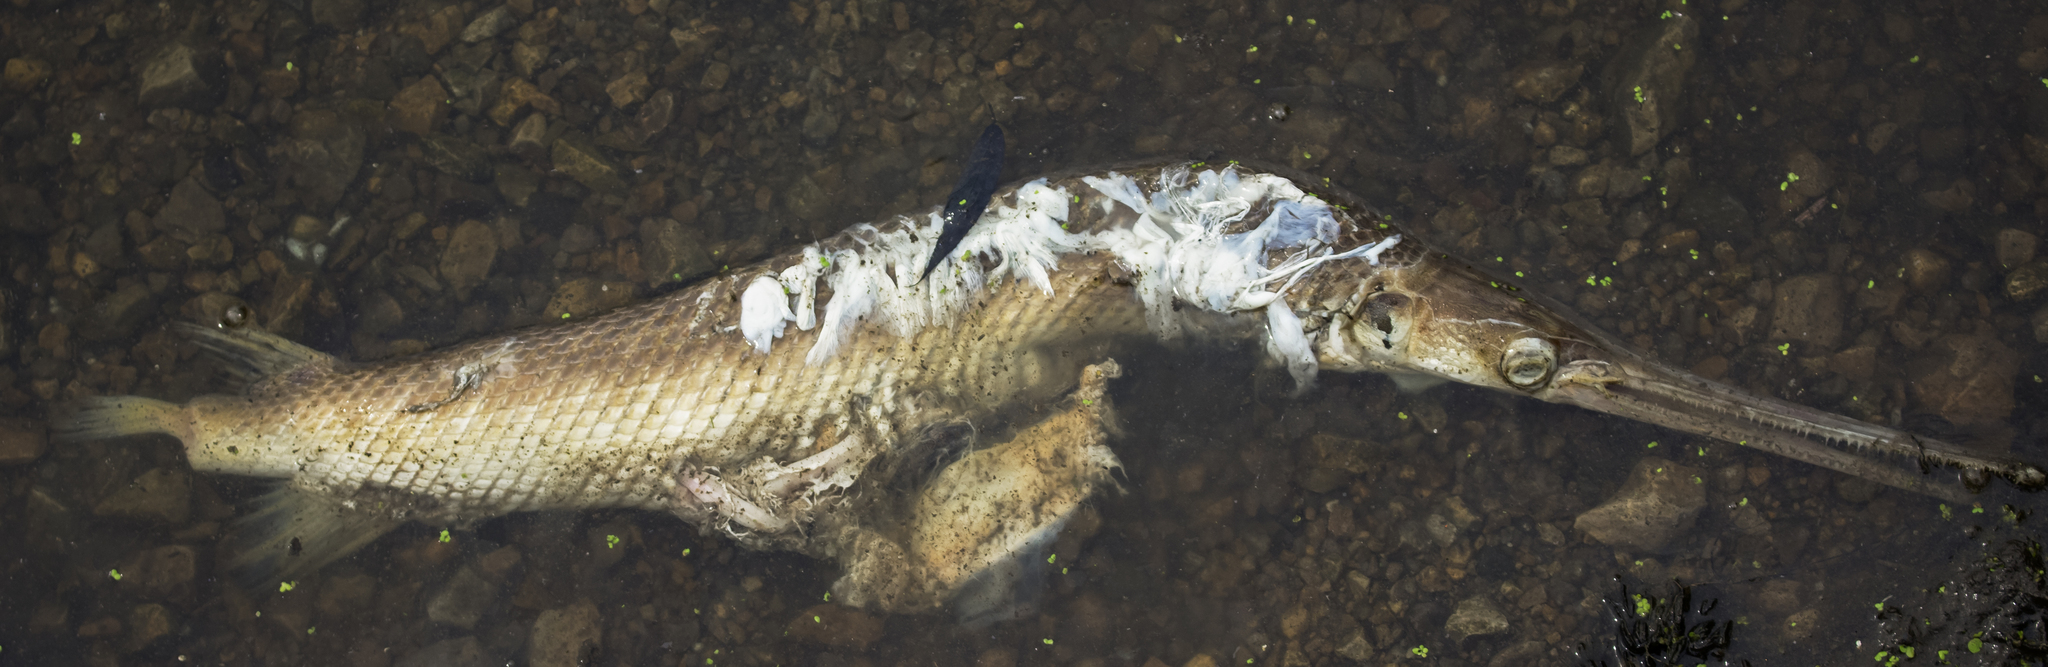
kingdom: Animalia
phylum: Chordata
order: Lepisosteiformes
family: Lepisosteidae
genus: Lepisosteus
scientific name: Lepisosteus osseus
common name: Longnose gar
